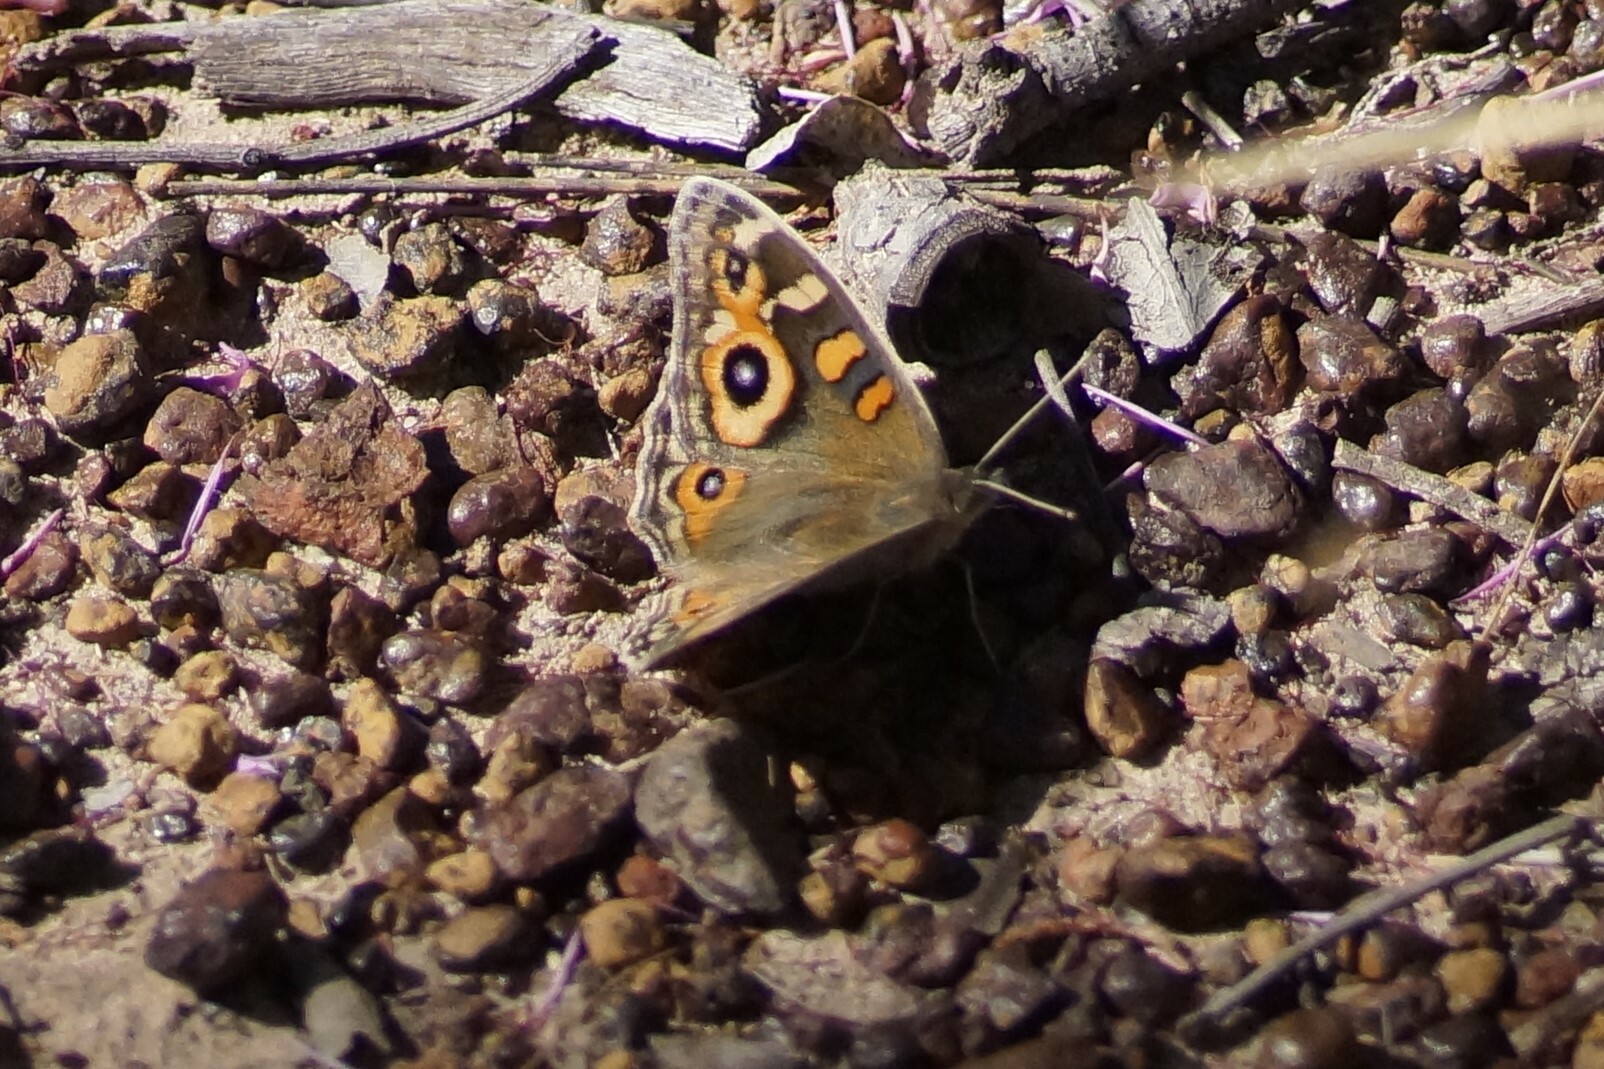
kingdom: Animalia
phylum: Arthropoda
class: Insecta
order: Lepidoptera
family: Nymphalidae
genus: Junonia
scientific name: Junonia villida
